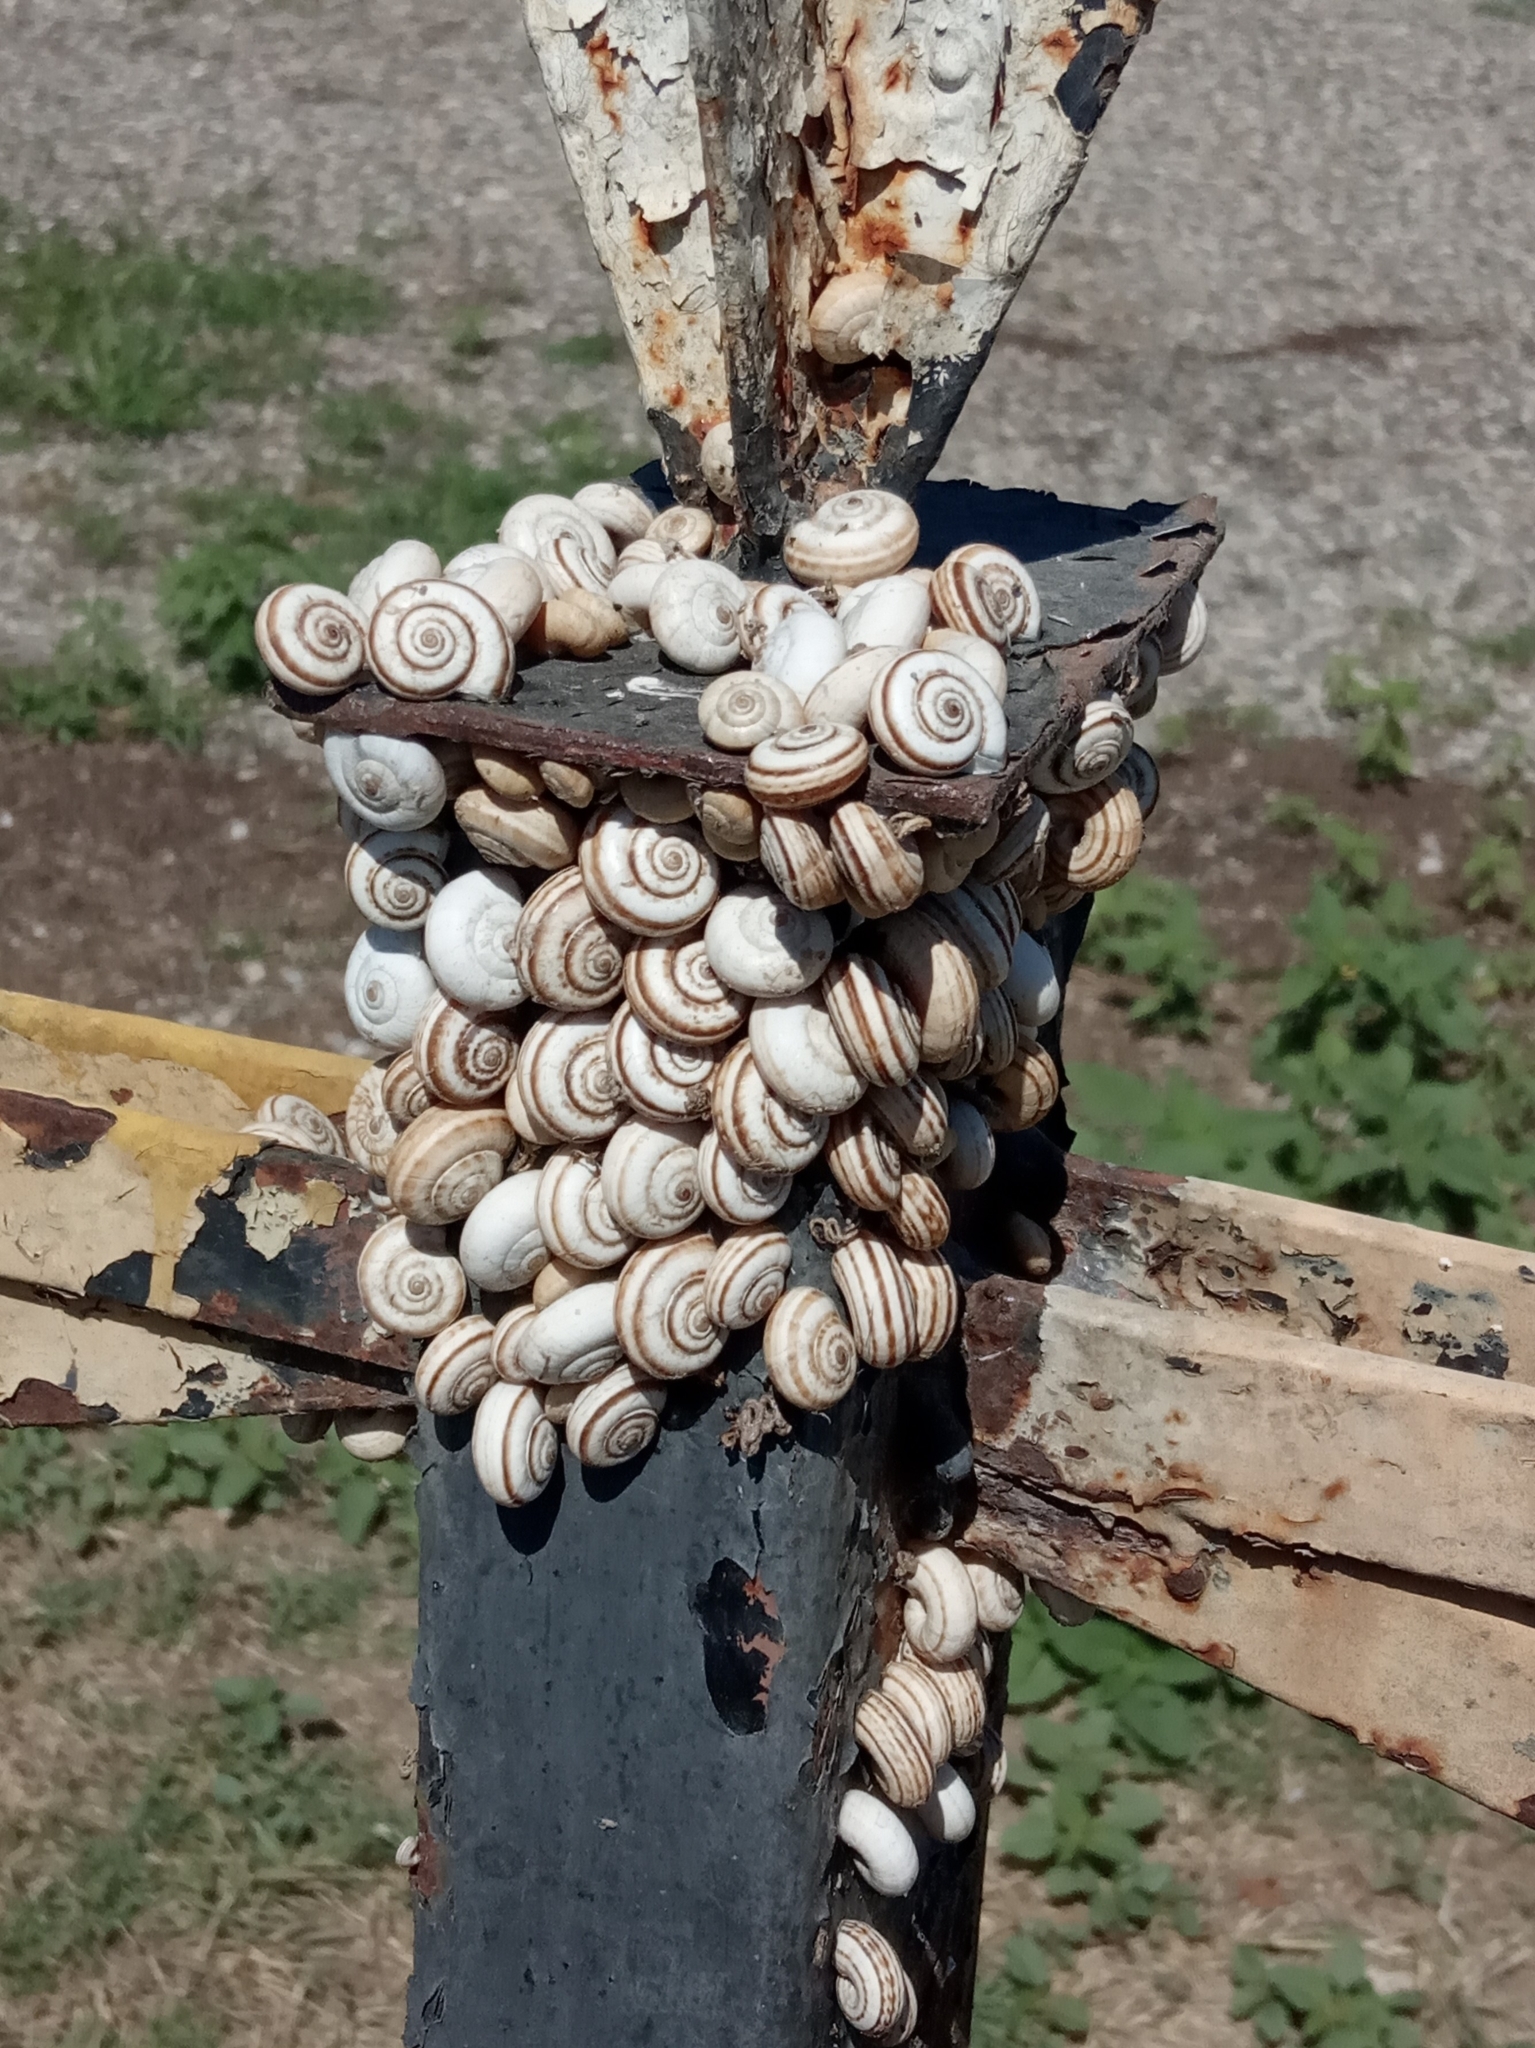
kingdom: Animalia
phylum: Mollusca
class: Gastropoda
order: Stylommatophora
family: Geomitridae
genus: Xeropicta
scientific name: Xeropicta derbentina
